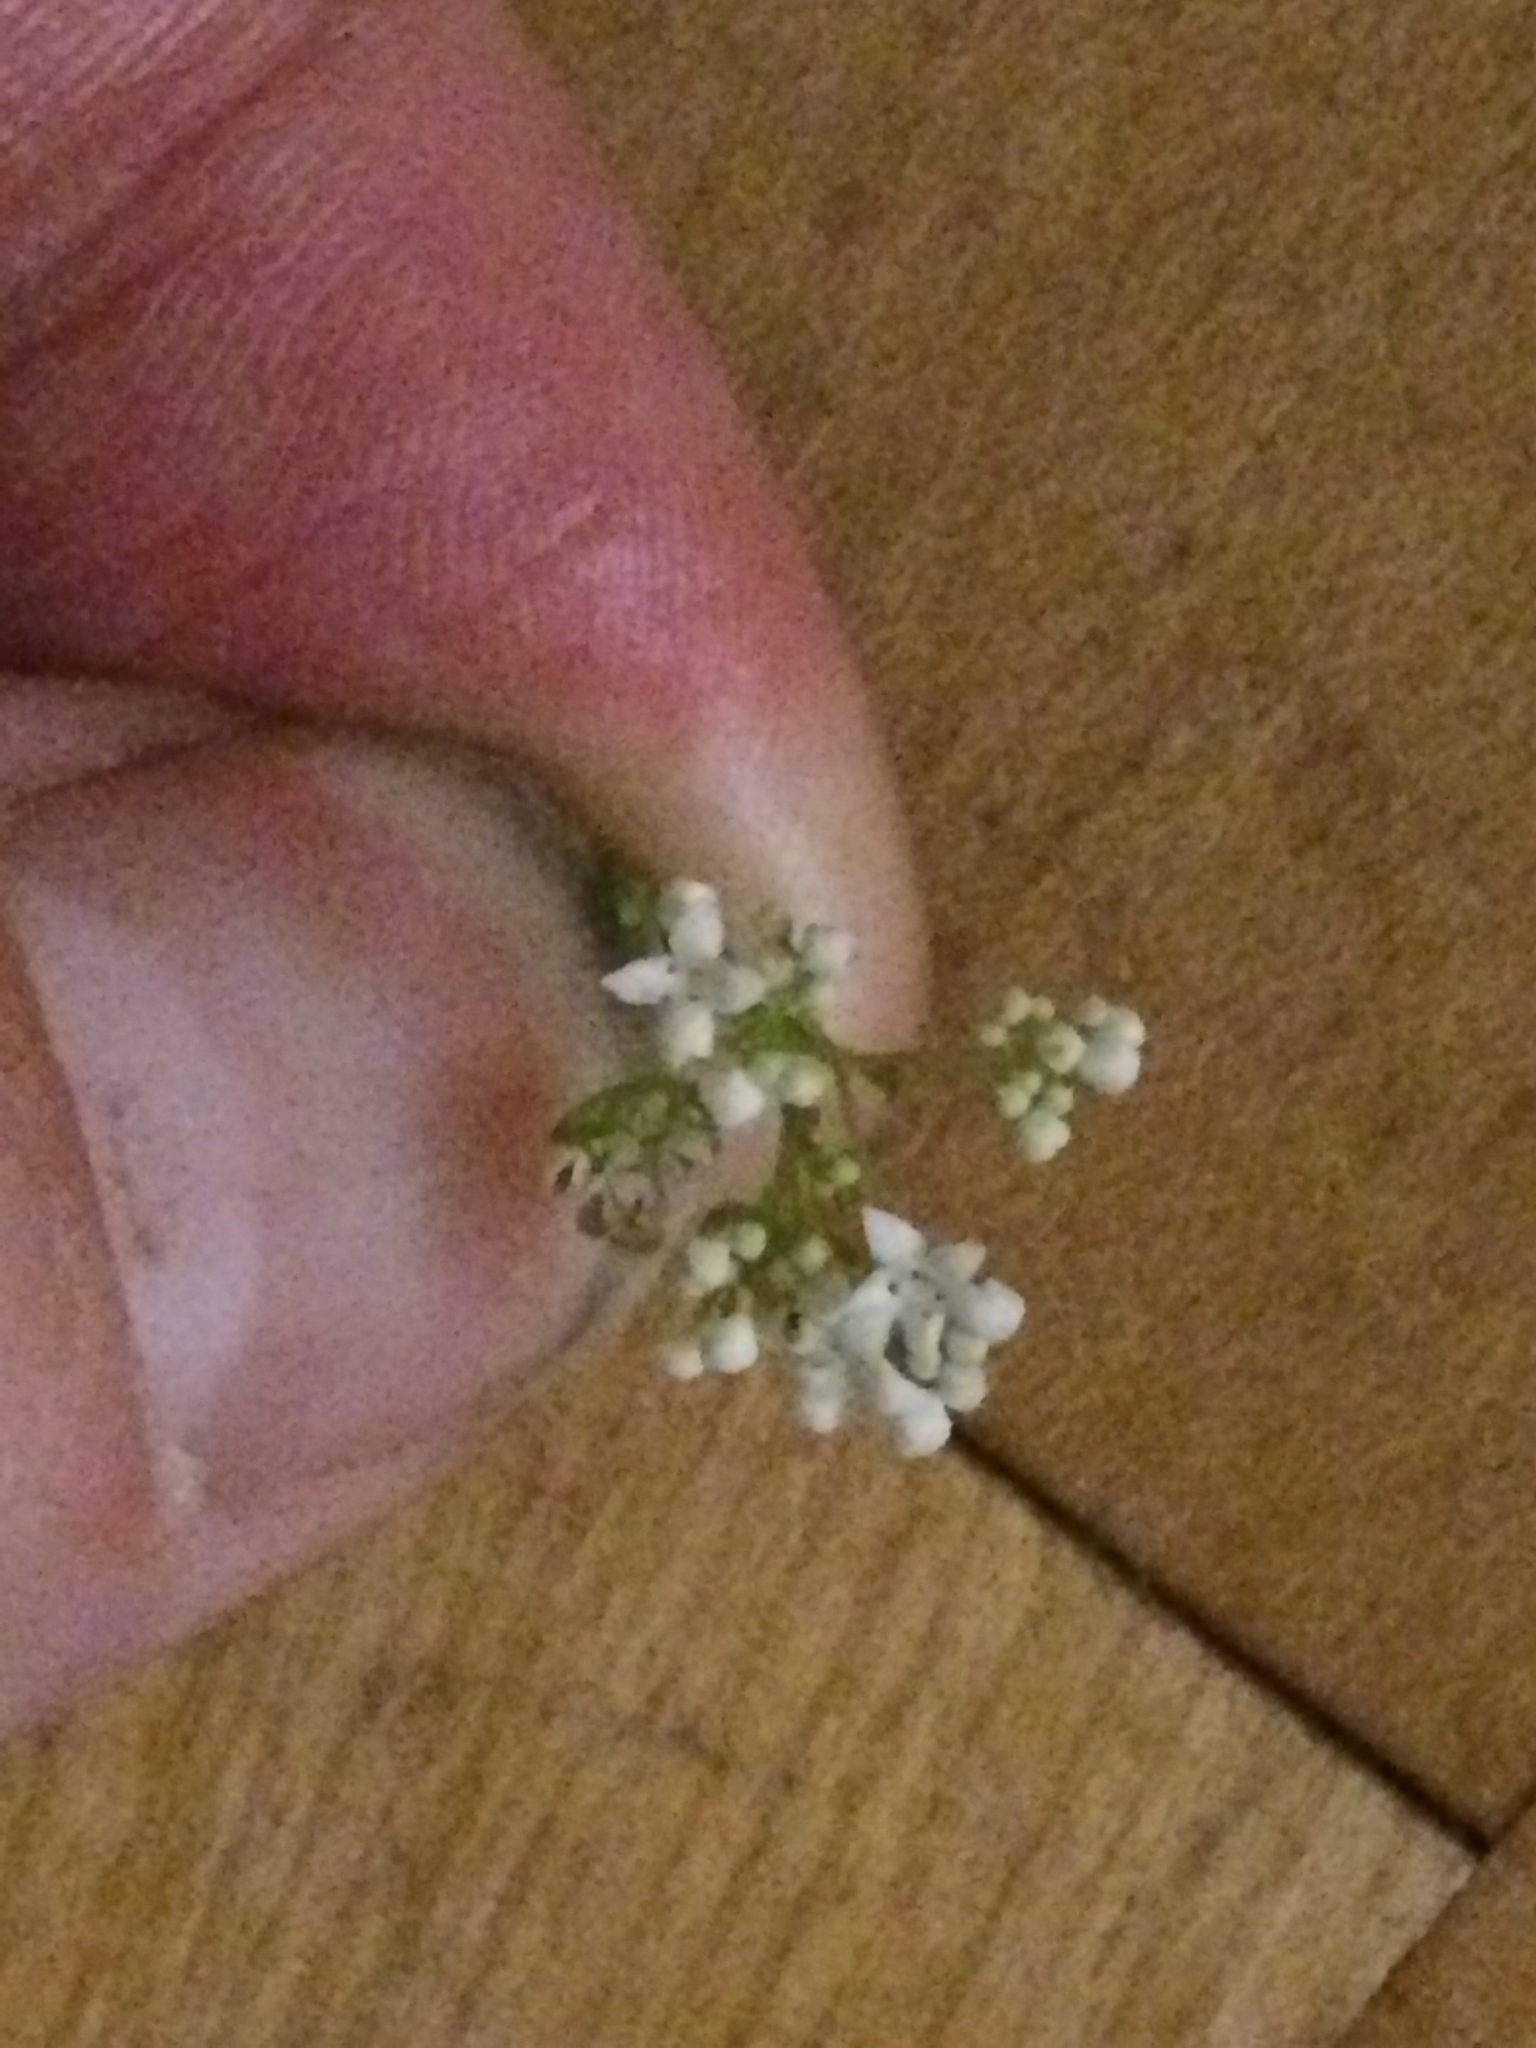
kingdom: Plantae
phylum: Tracheophyta
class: Magnoliopsida
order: Gentianales
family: Rubiaceae
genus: Galium
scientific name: Galium palustre
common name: Common marsh-bedstraw
